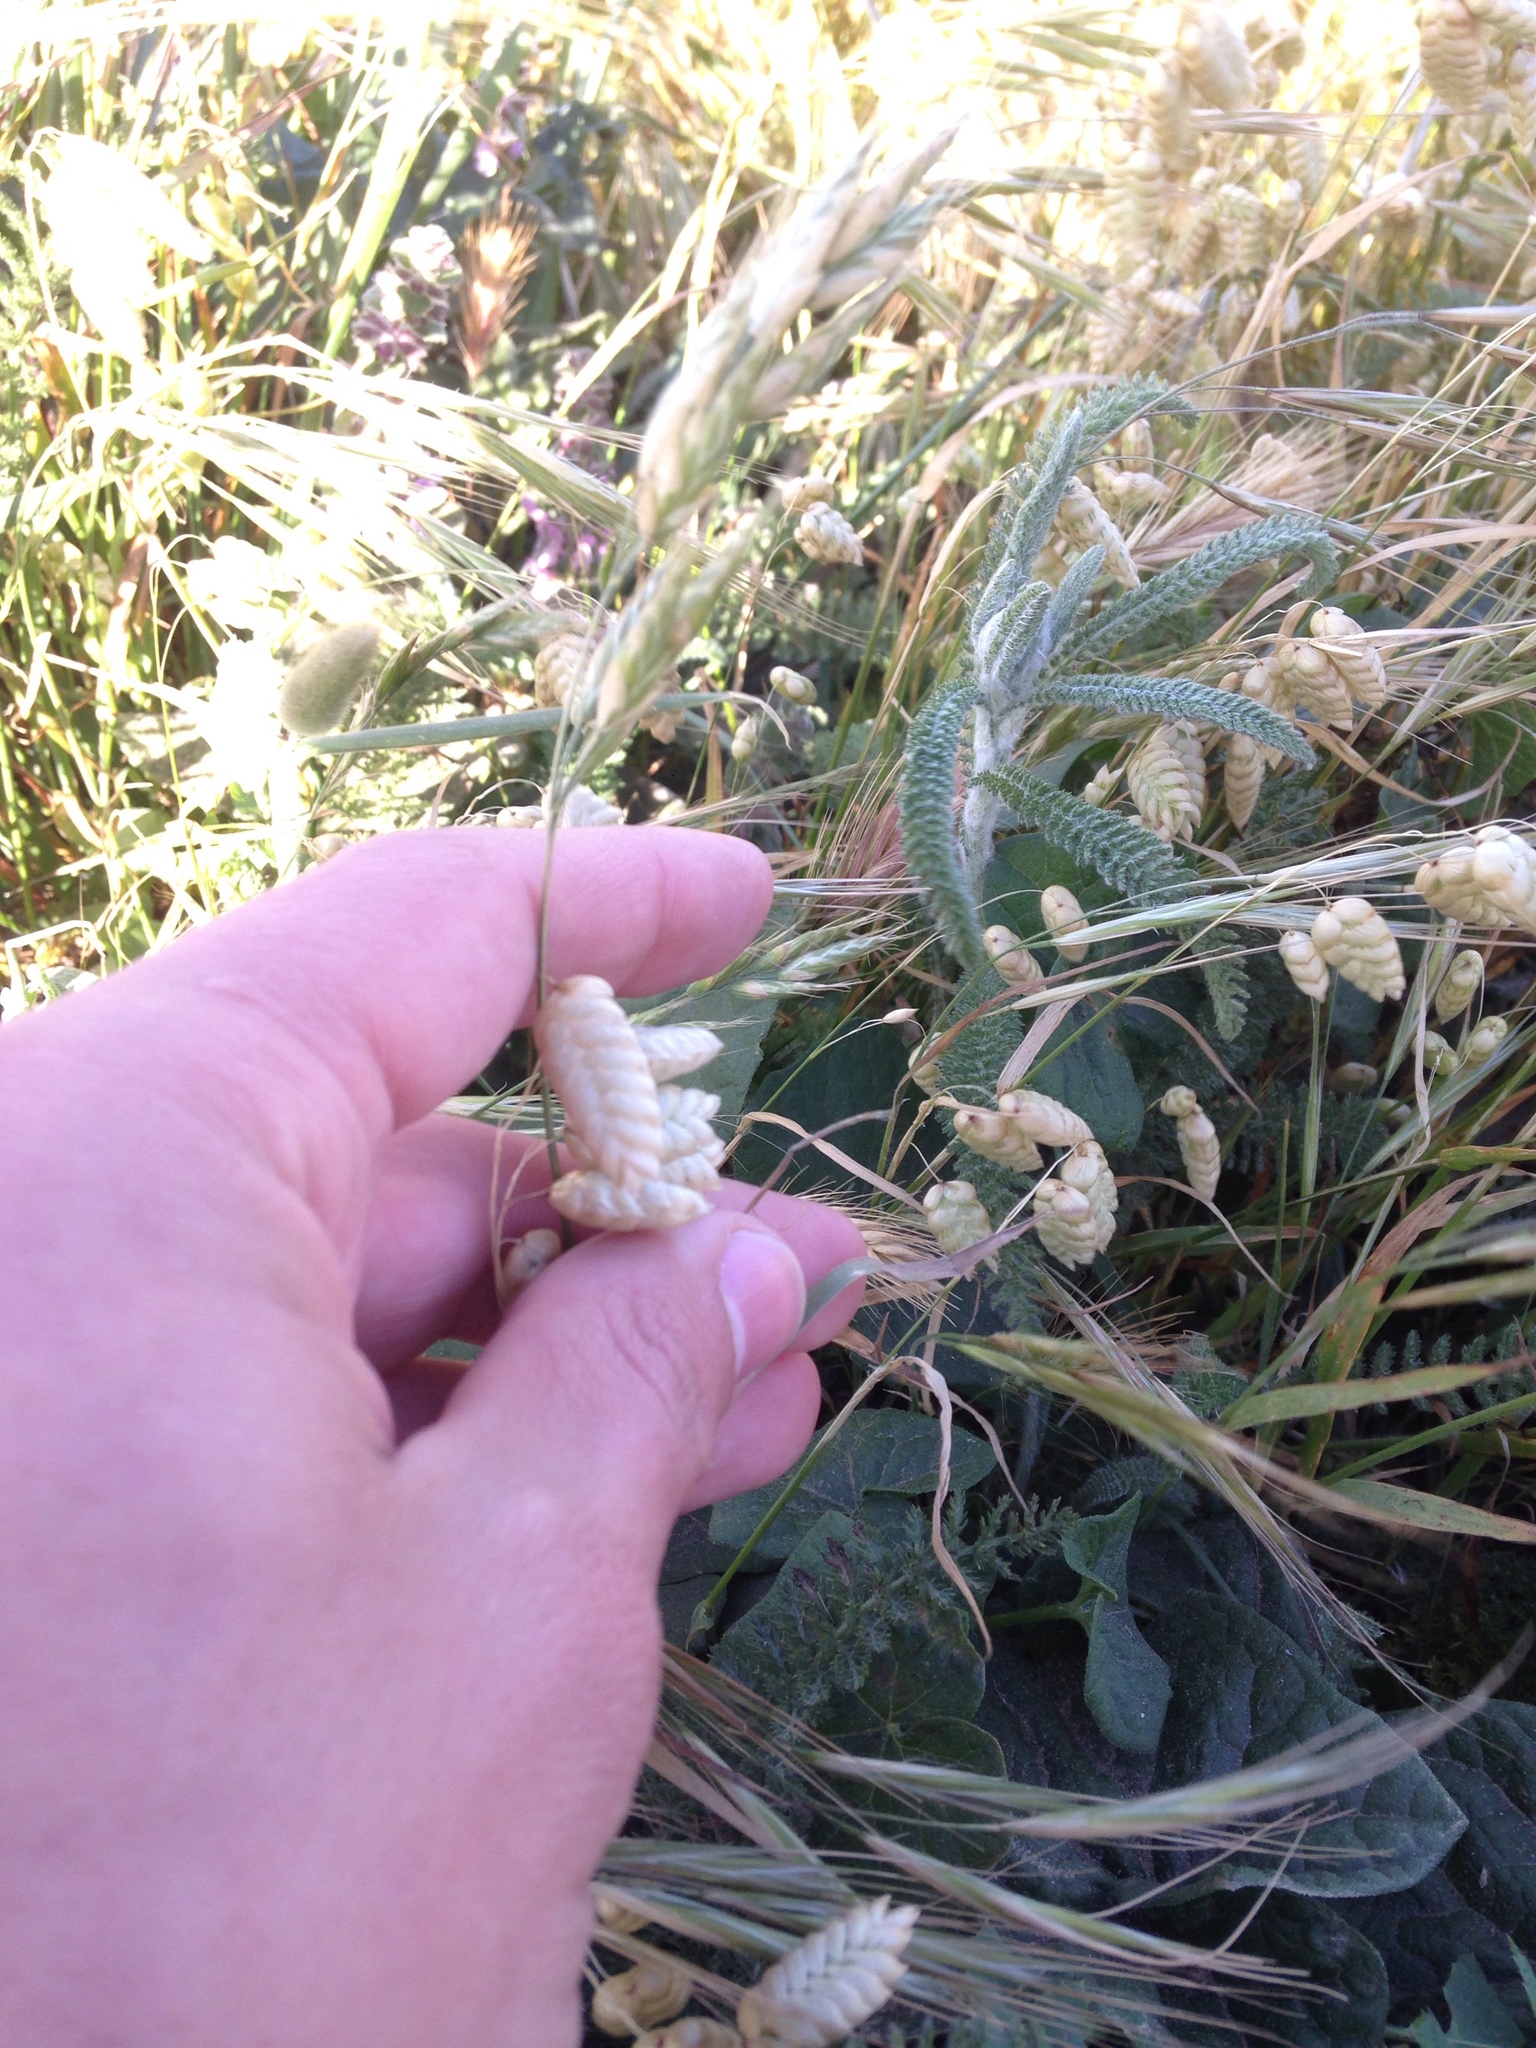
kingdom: Plantae
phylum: Tracheophyta
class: Liliopsida
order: Poales
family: Poaceae
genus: Briza
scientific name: Briza maxima
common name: Big quakinggrass
